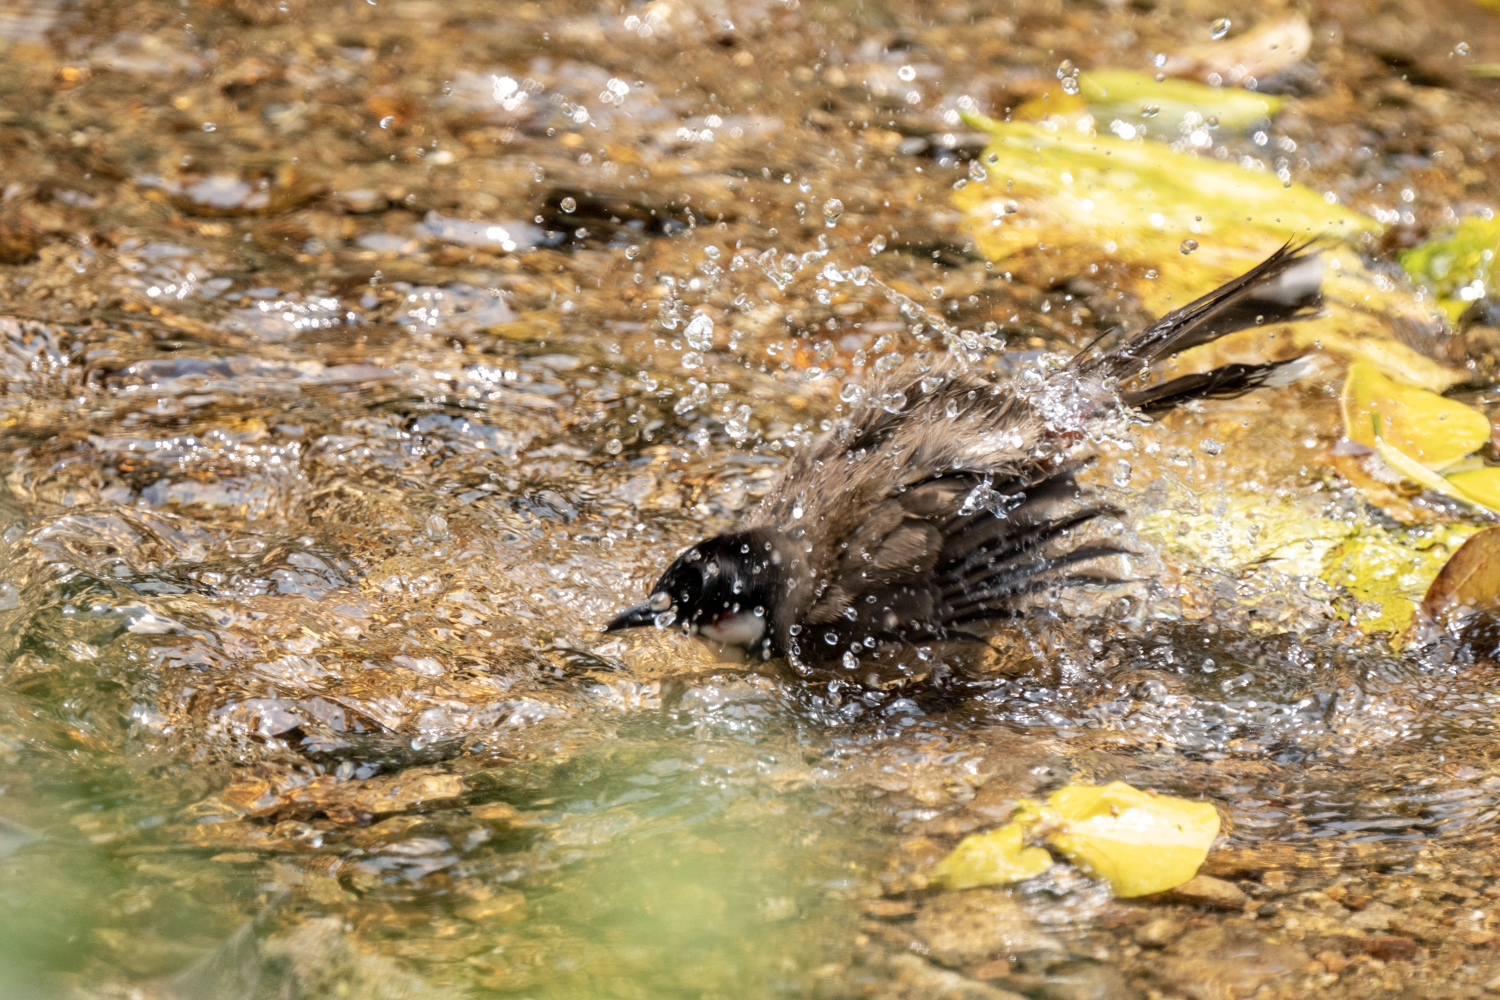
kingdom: Animalia
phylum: Chordata
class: Aves
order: Passeriformes
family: Pycnonotidae
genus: Pycnonotus
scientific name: Pycnonotus jocosus
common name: Red-whiskered bulbul
